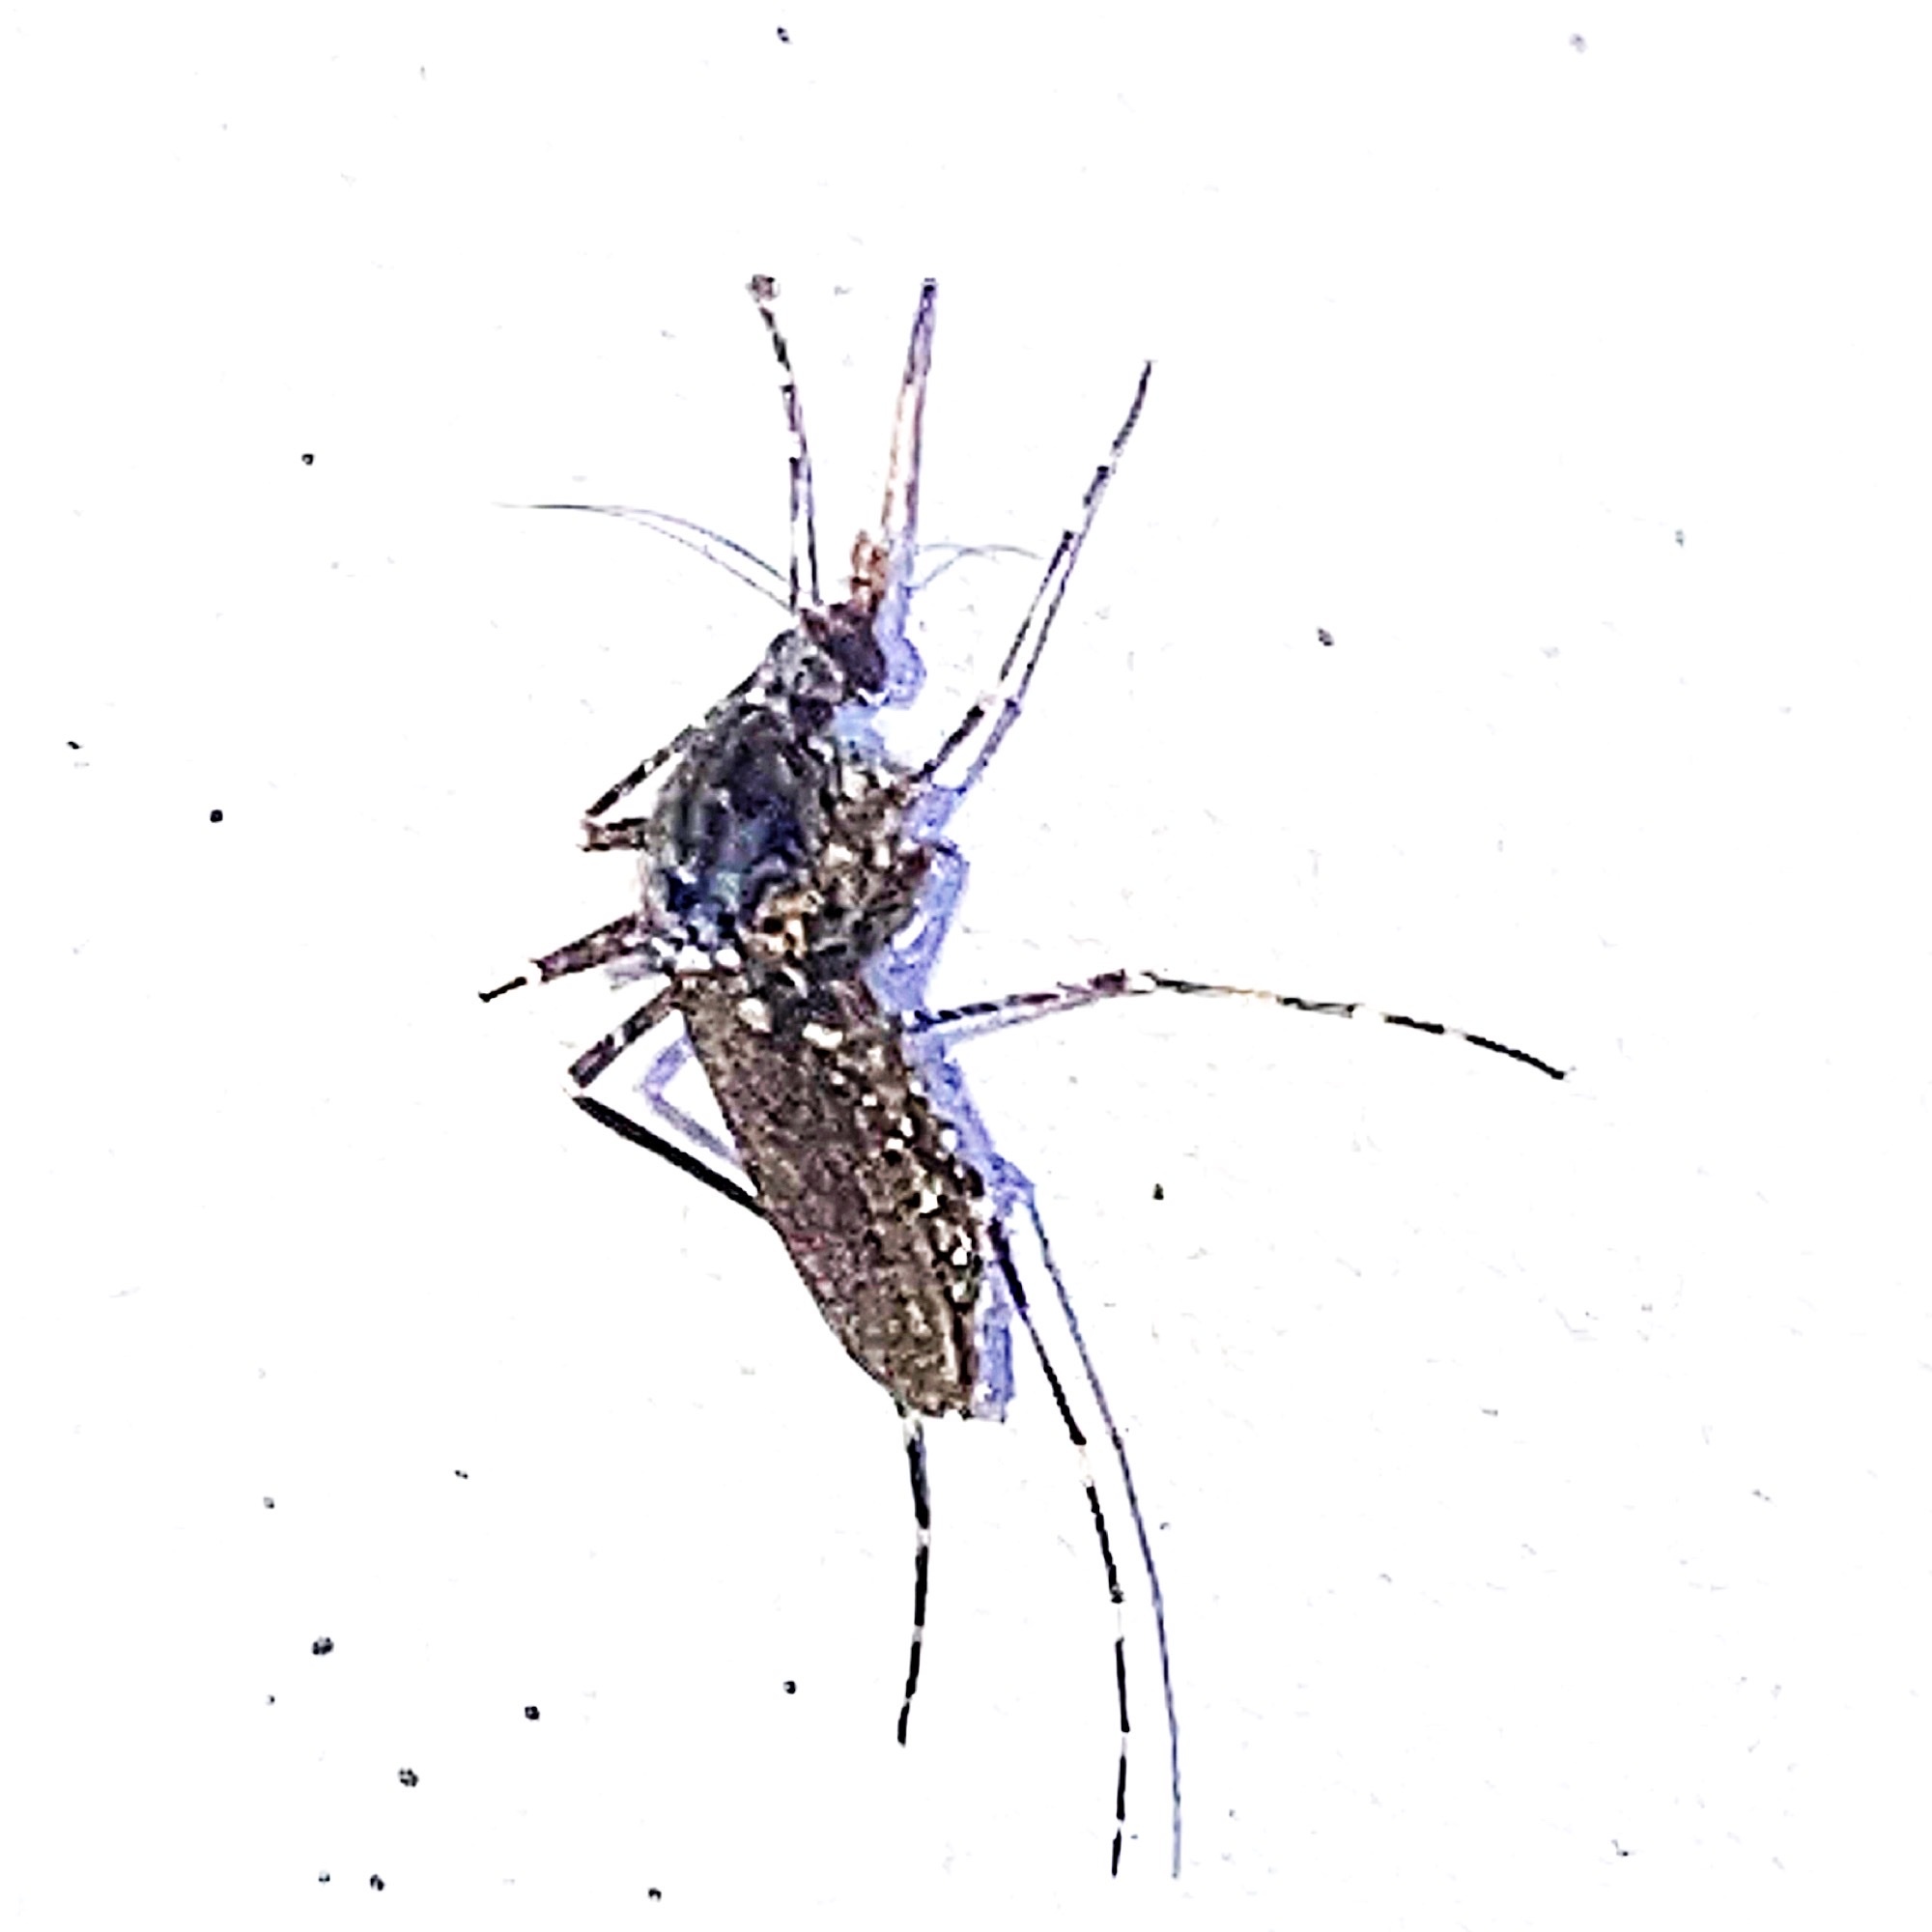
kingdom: Animalia
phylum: Arthropoda
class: Insecta
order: Diptera
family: Culicidae
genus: Psorophora
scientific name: Psorophora columbiae
